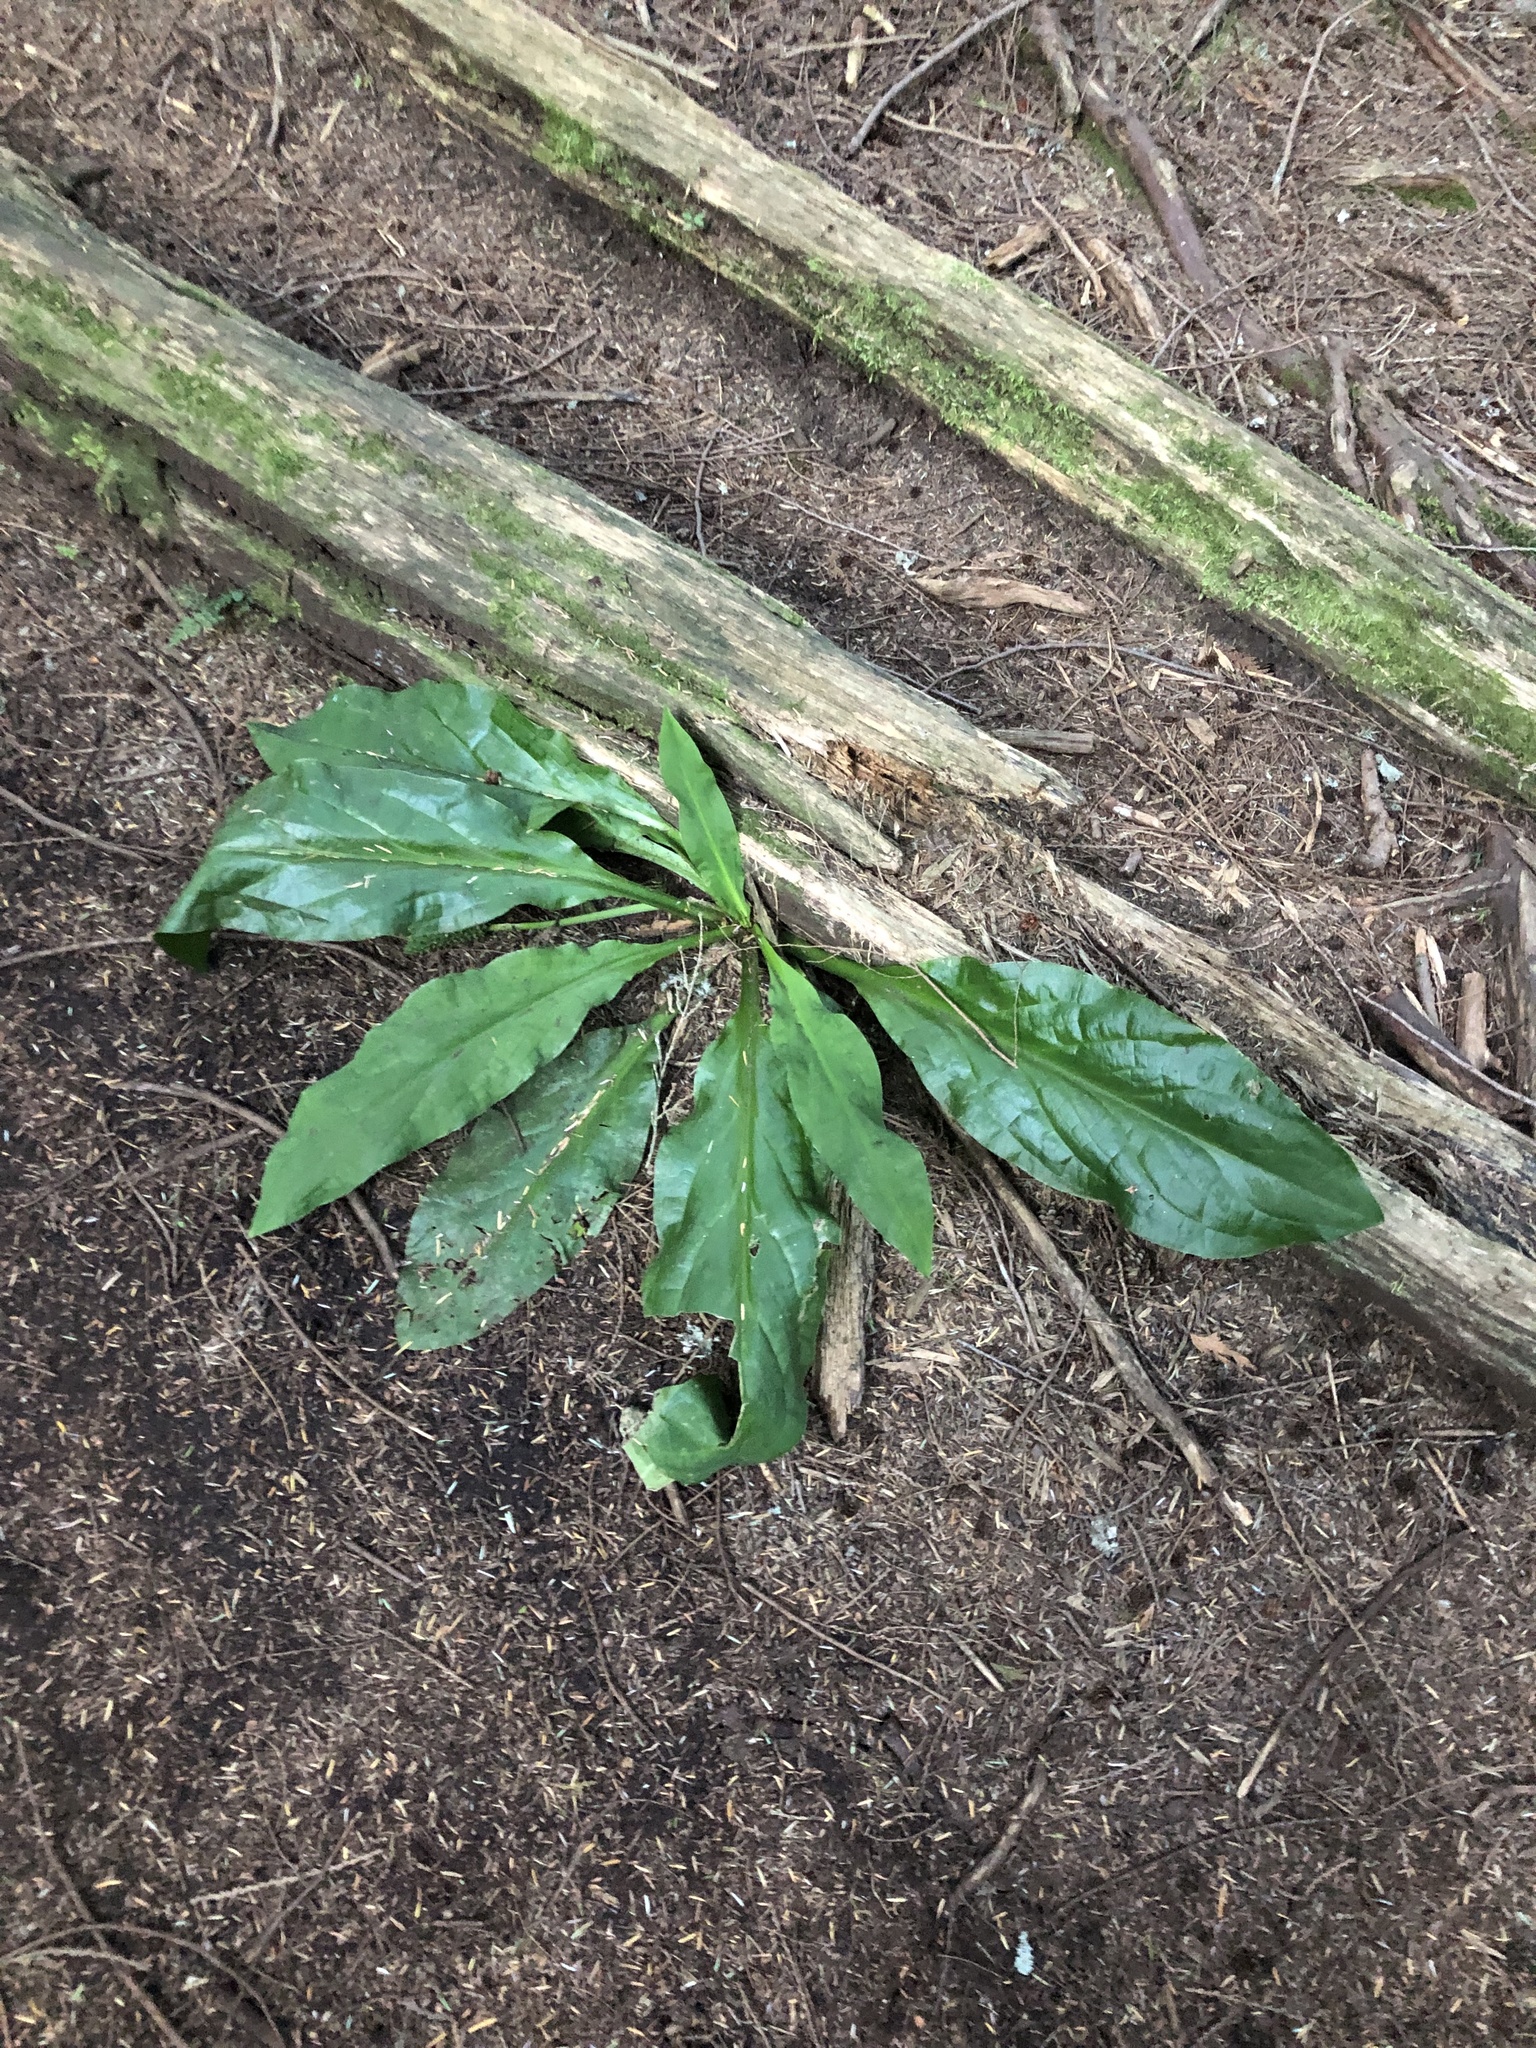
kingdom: Plantae
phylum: Tracheophyta
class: Liliopsida
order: Alismatales
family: Araceae
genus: Lysichiton
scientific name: Lysichiton americanus
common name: American skunk cabbage
